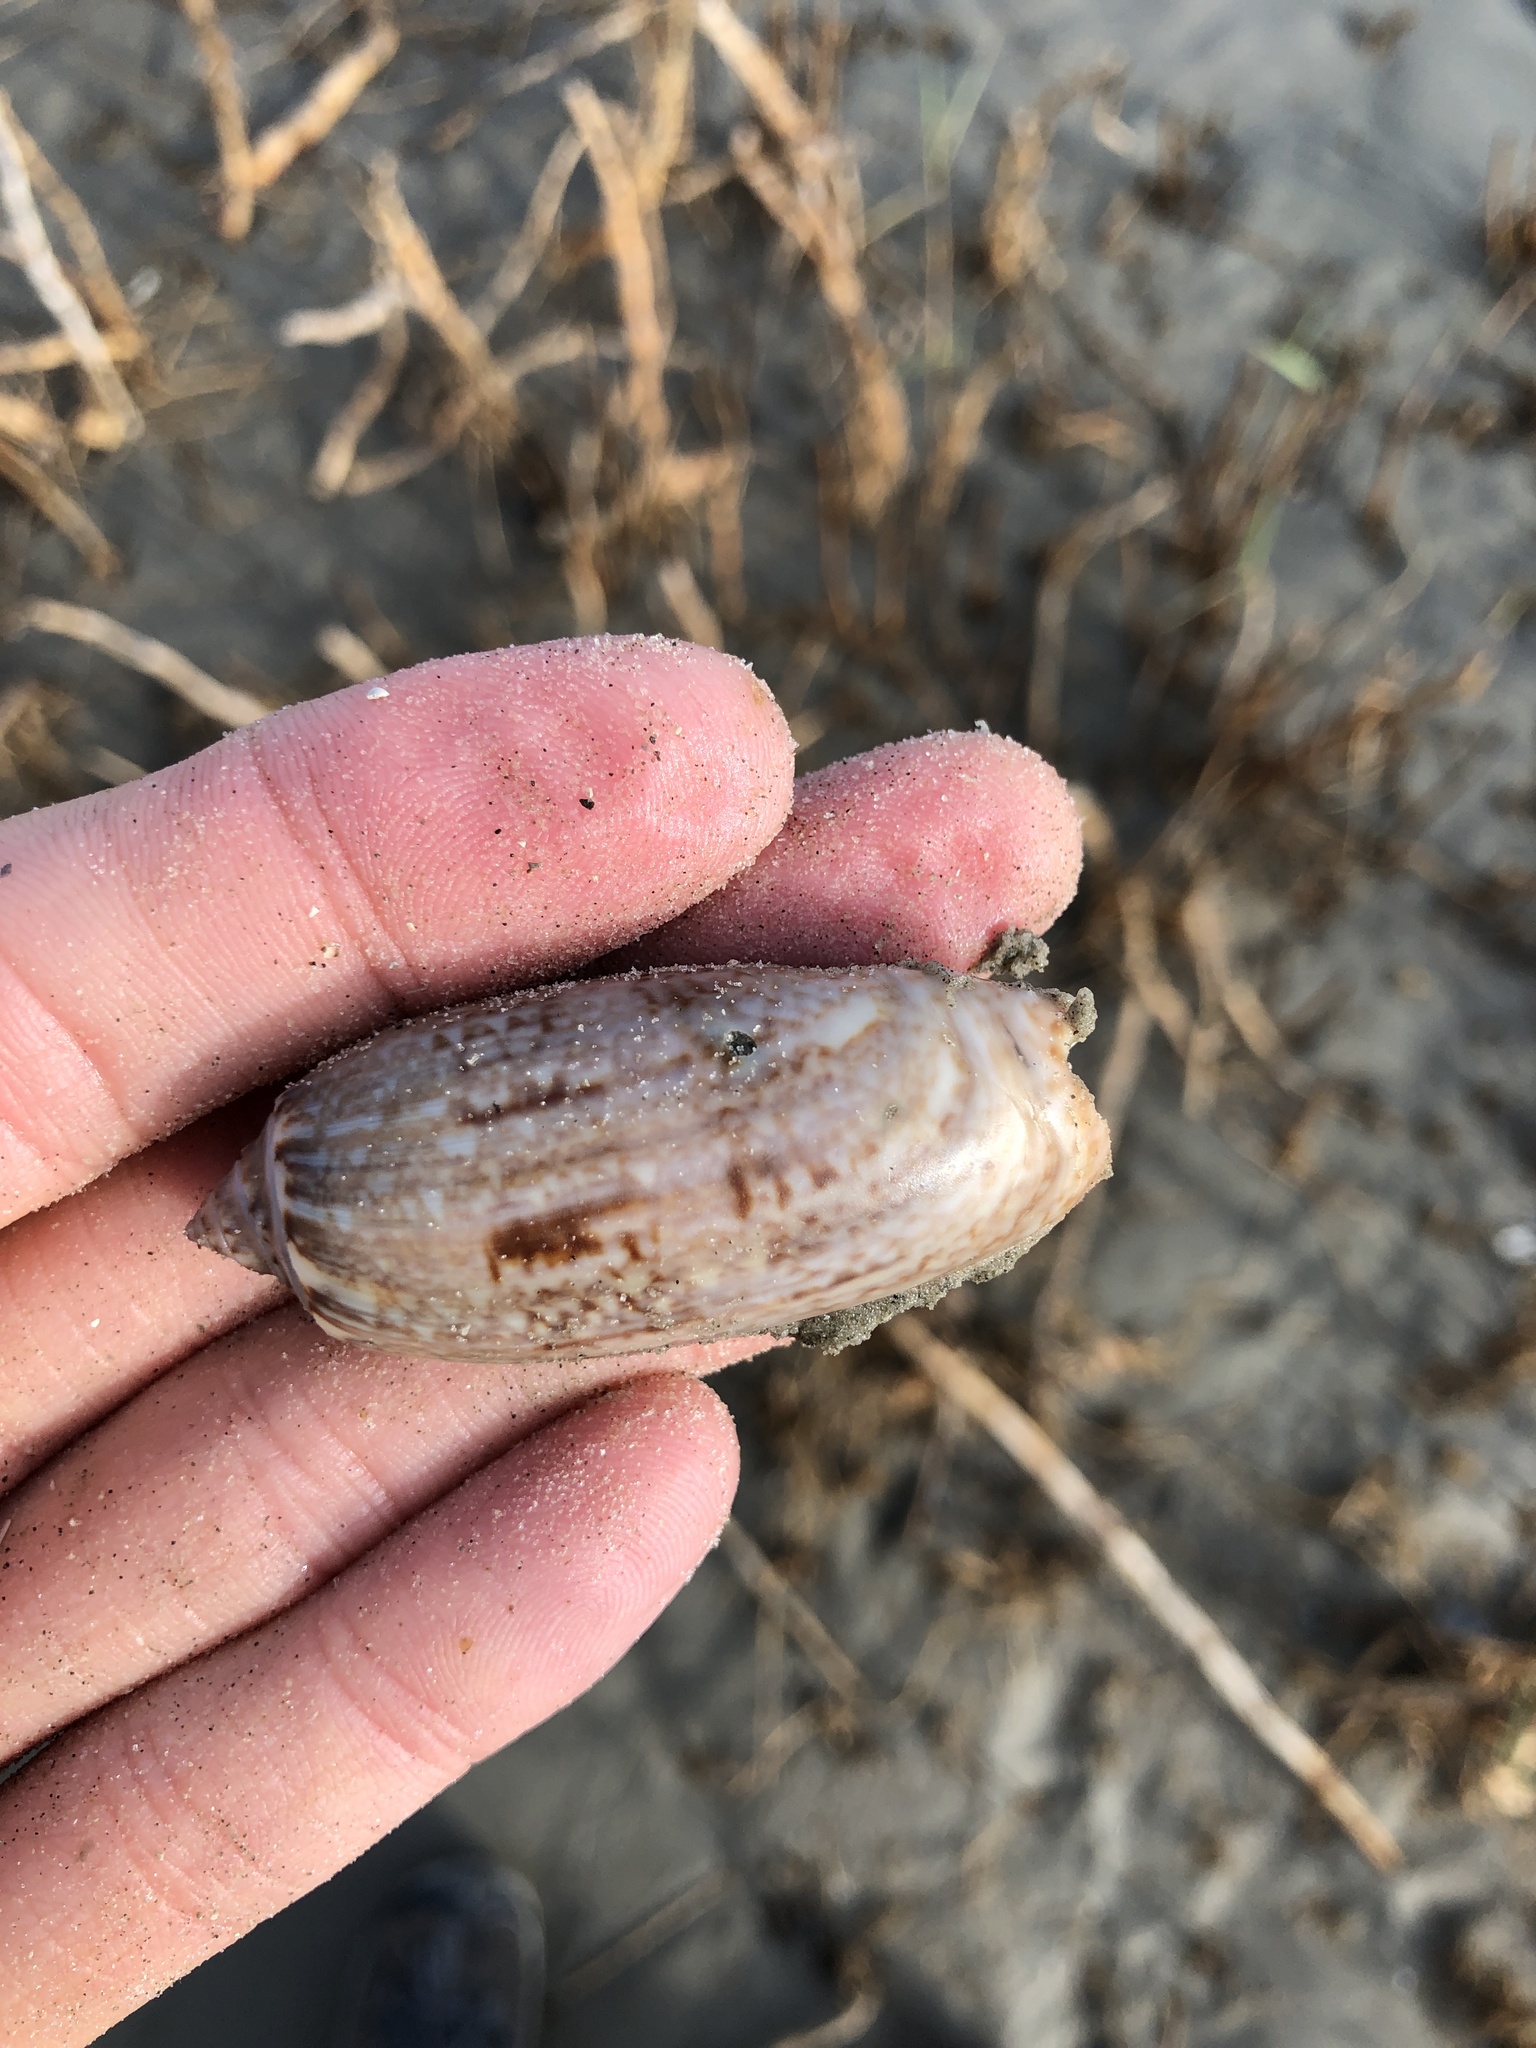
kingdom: Animalia
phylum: Mollusca
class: Gastropoda
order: Neogastropoda
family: Olividae
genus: Oliva
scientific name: Oliva sayana
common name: Lettered olive
